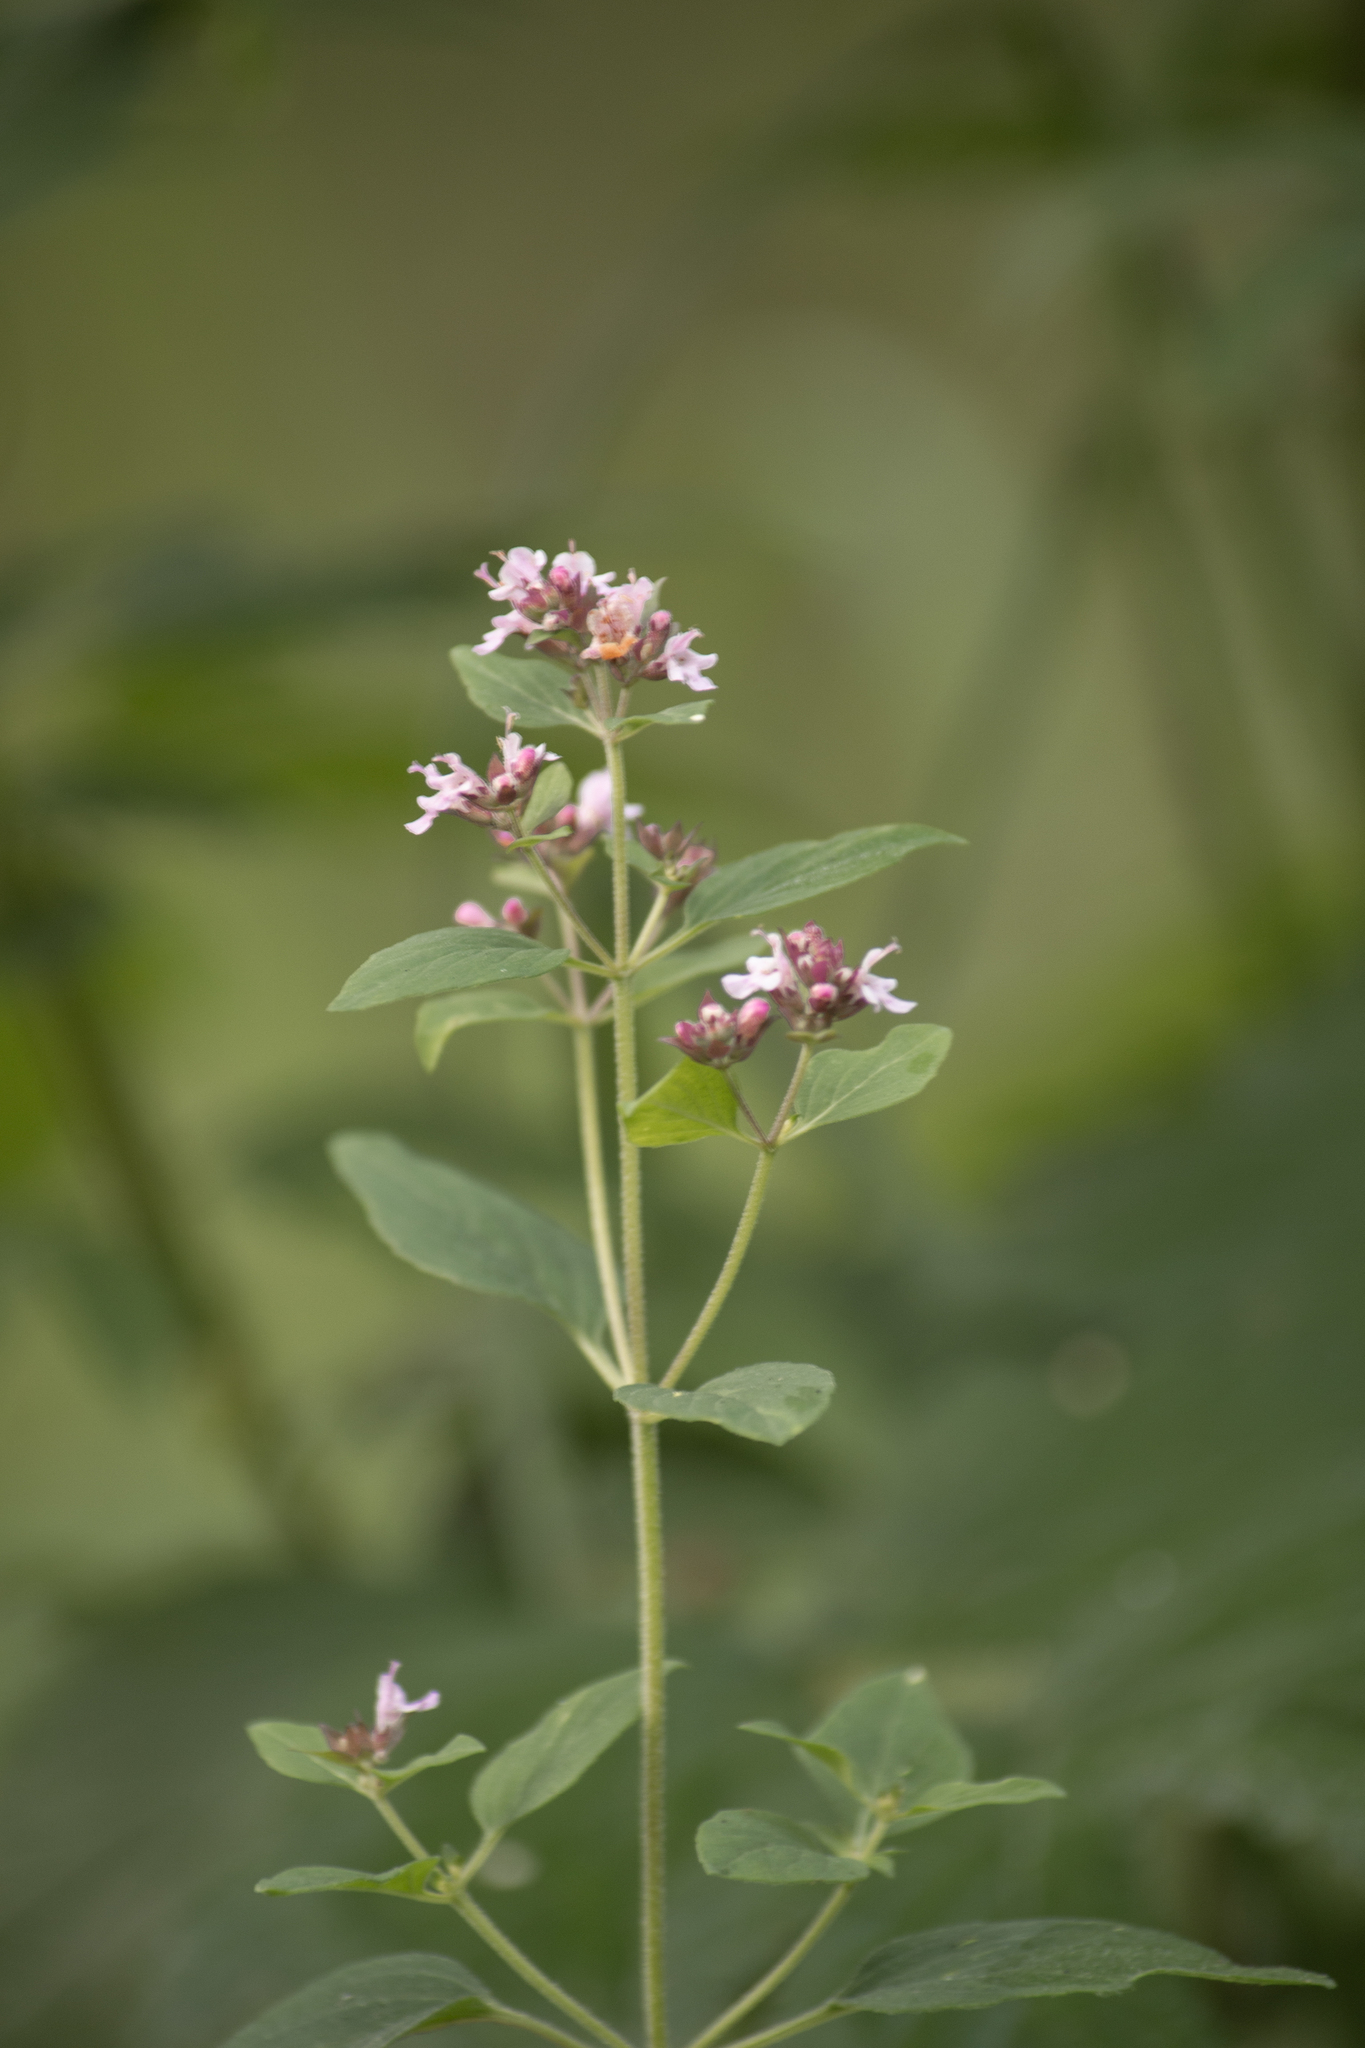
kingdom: Plantae
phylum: Tracheophyta
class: Magnoliopsida
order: Lamiales
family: Lamiaceae
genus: Origanum
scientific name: Origanum vulgare
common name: Wild marjoram
